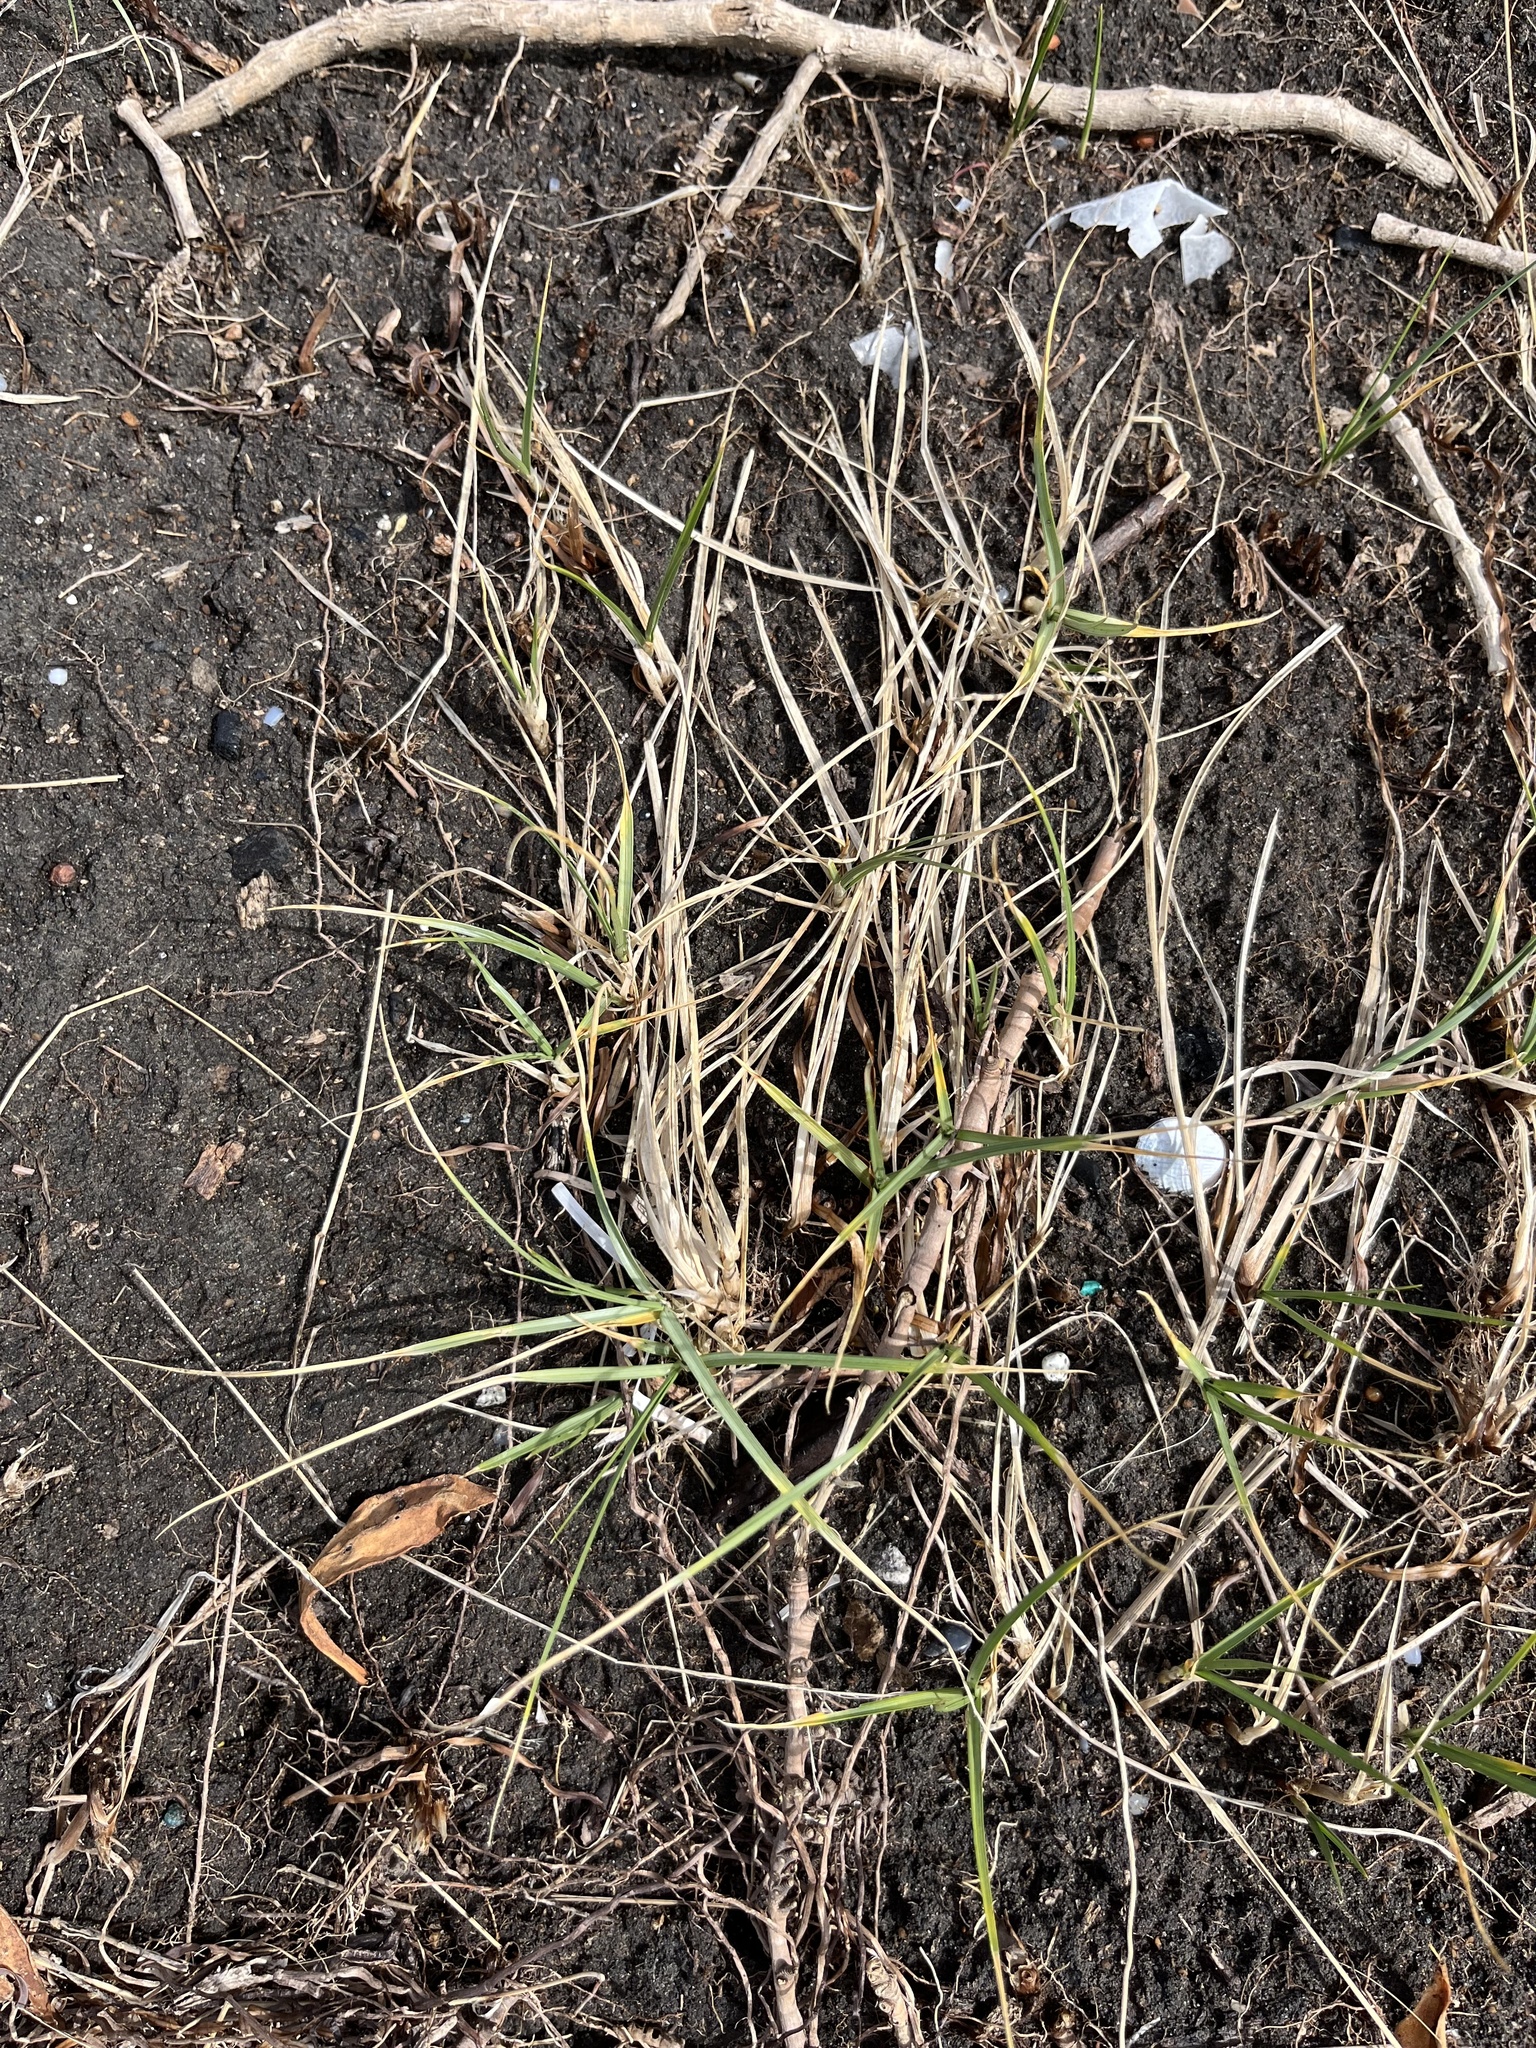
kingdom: Plantae
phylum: Tracheophyta
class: Liliopsida
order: Poales
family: Cyperaceae
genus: Carex
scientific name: Carex pumila
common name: Dwarf sedge
